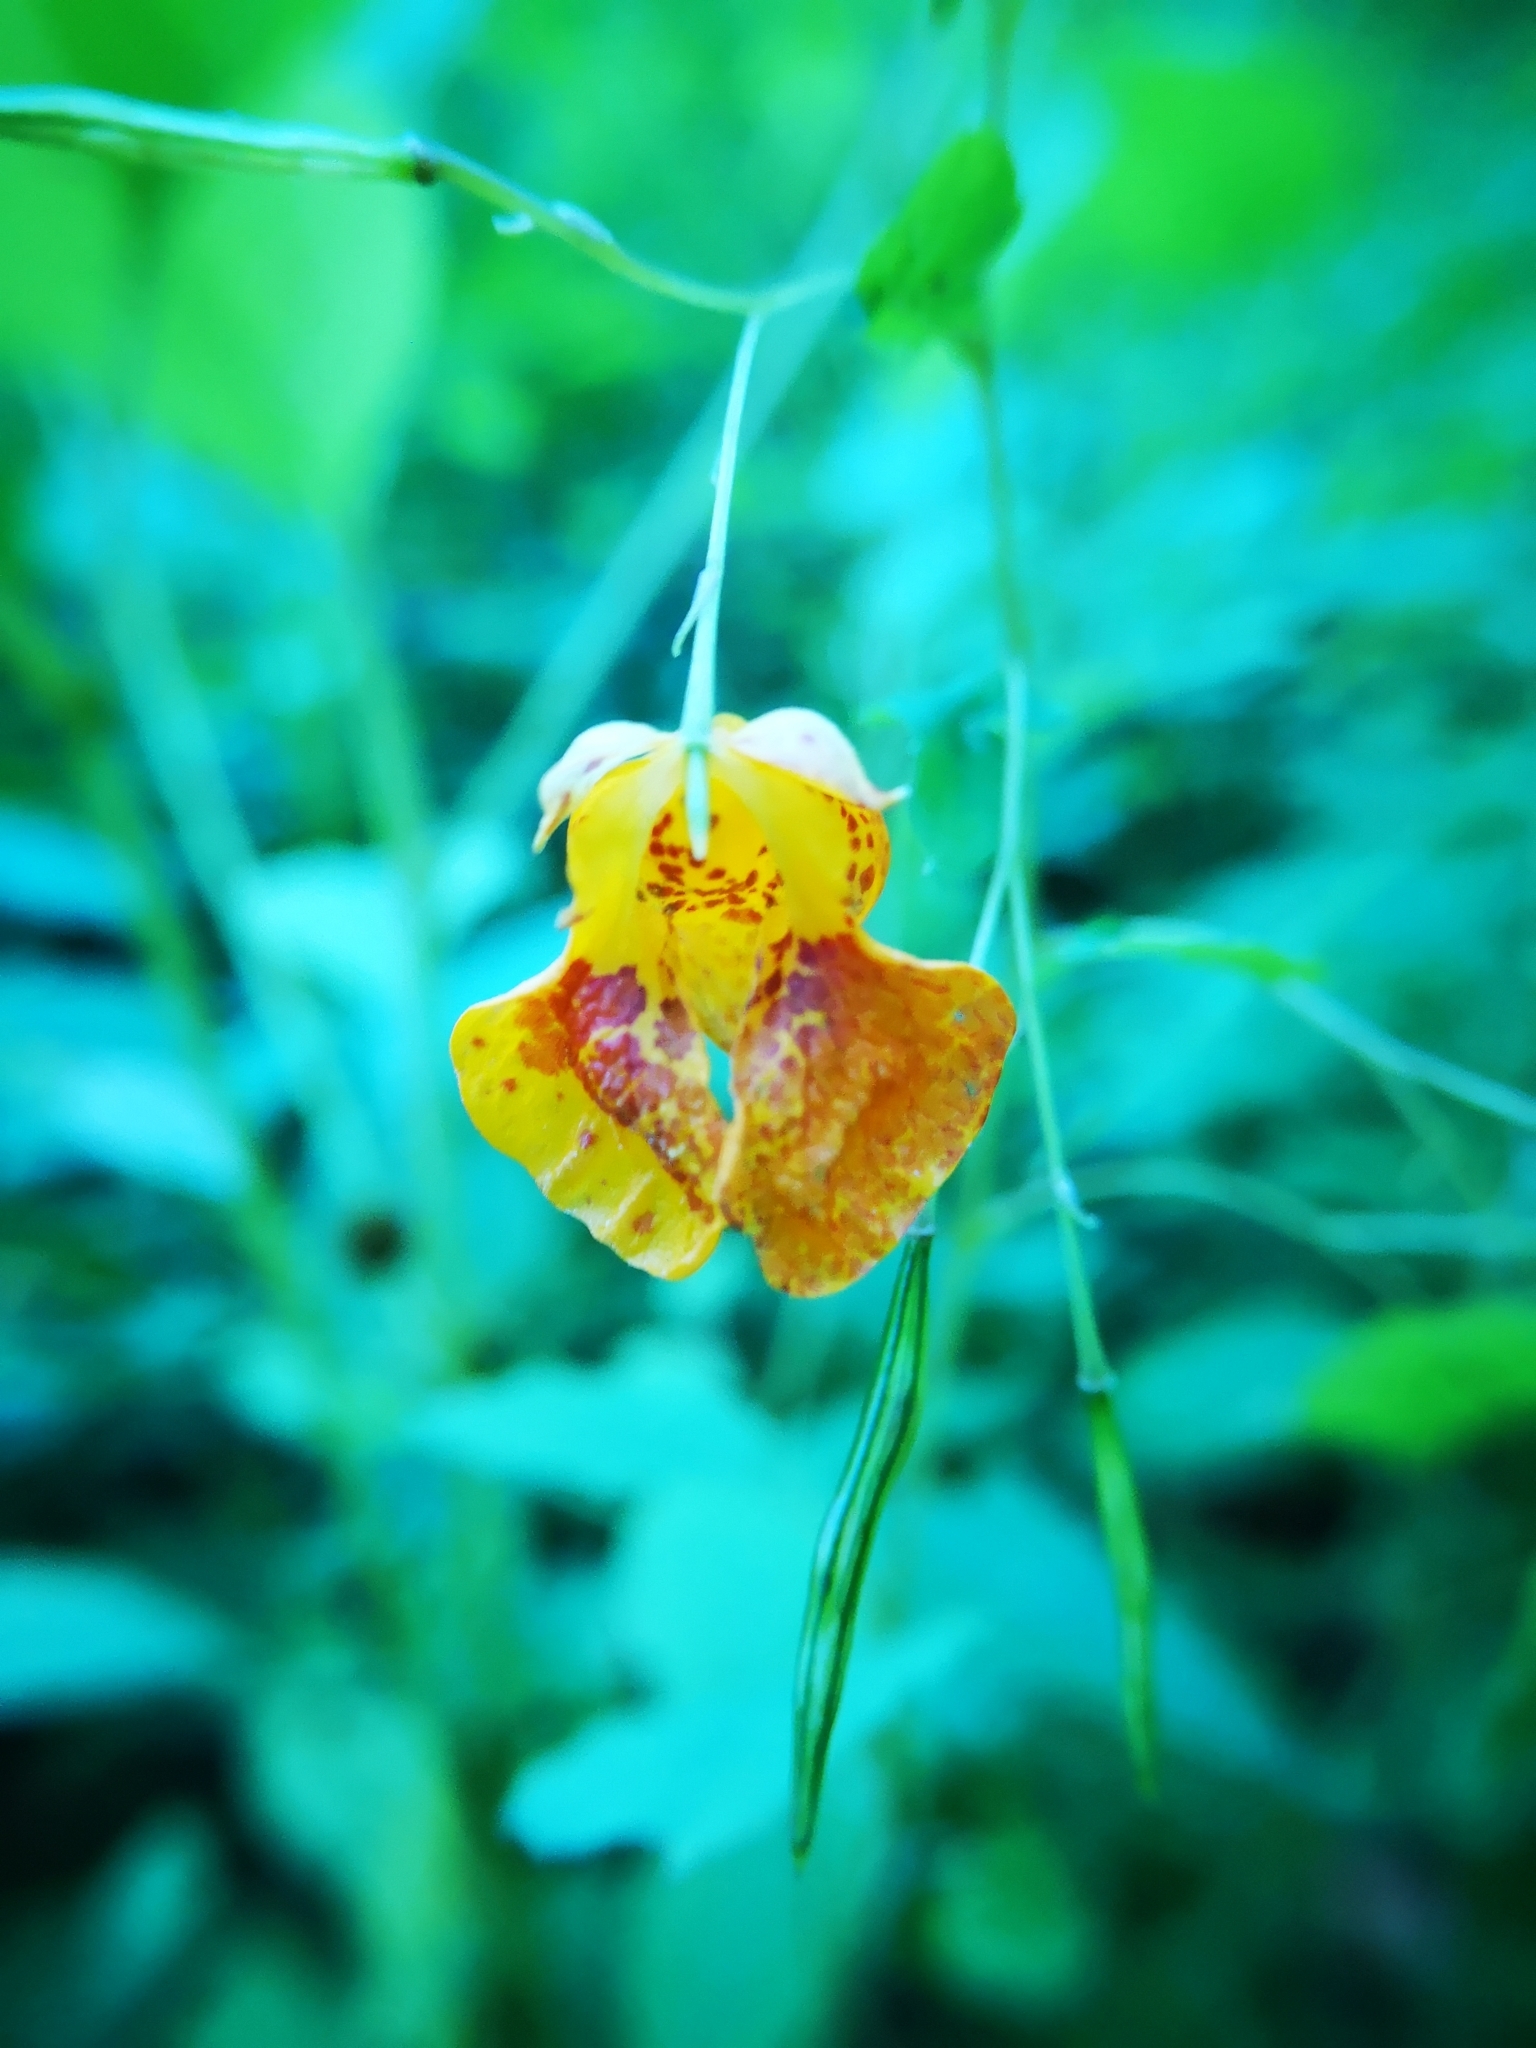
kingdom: Plantae
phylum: Tracheophyta
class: Magnoliopsida
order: Ericales
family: Balsaminaceae
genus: Impatiens
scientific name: Impatiens capensis
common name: Orange balsam
